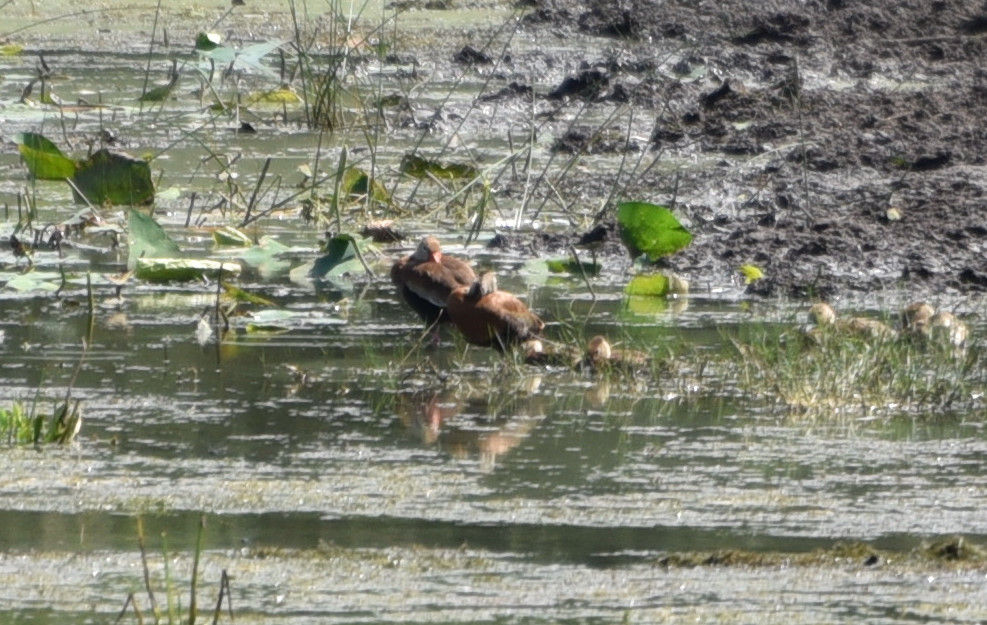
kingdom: Animalia
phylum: Chordata
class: Aves
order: Anseriformes
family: Anatidae
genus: Dendrocygna
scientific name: Dendrocygna autumnalis
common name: Black-bellied whistling duck
